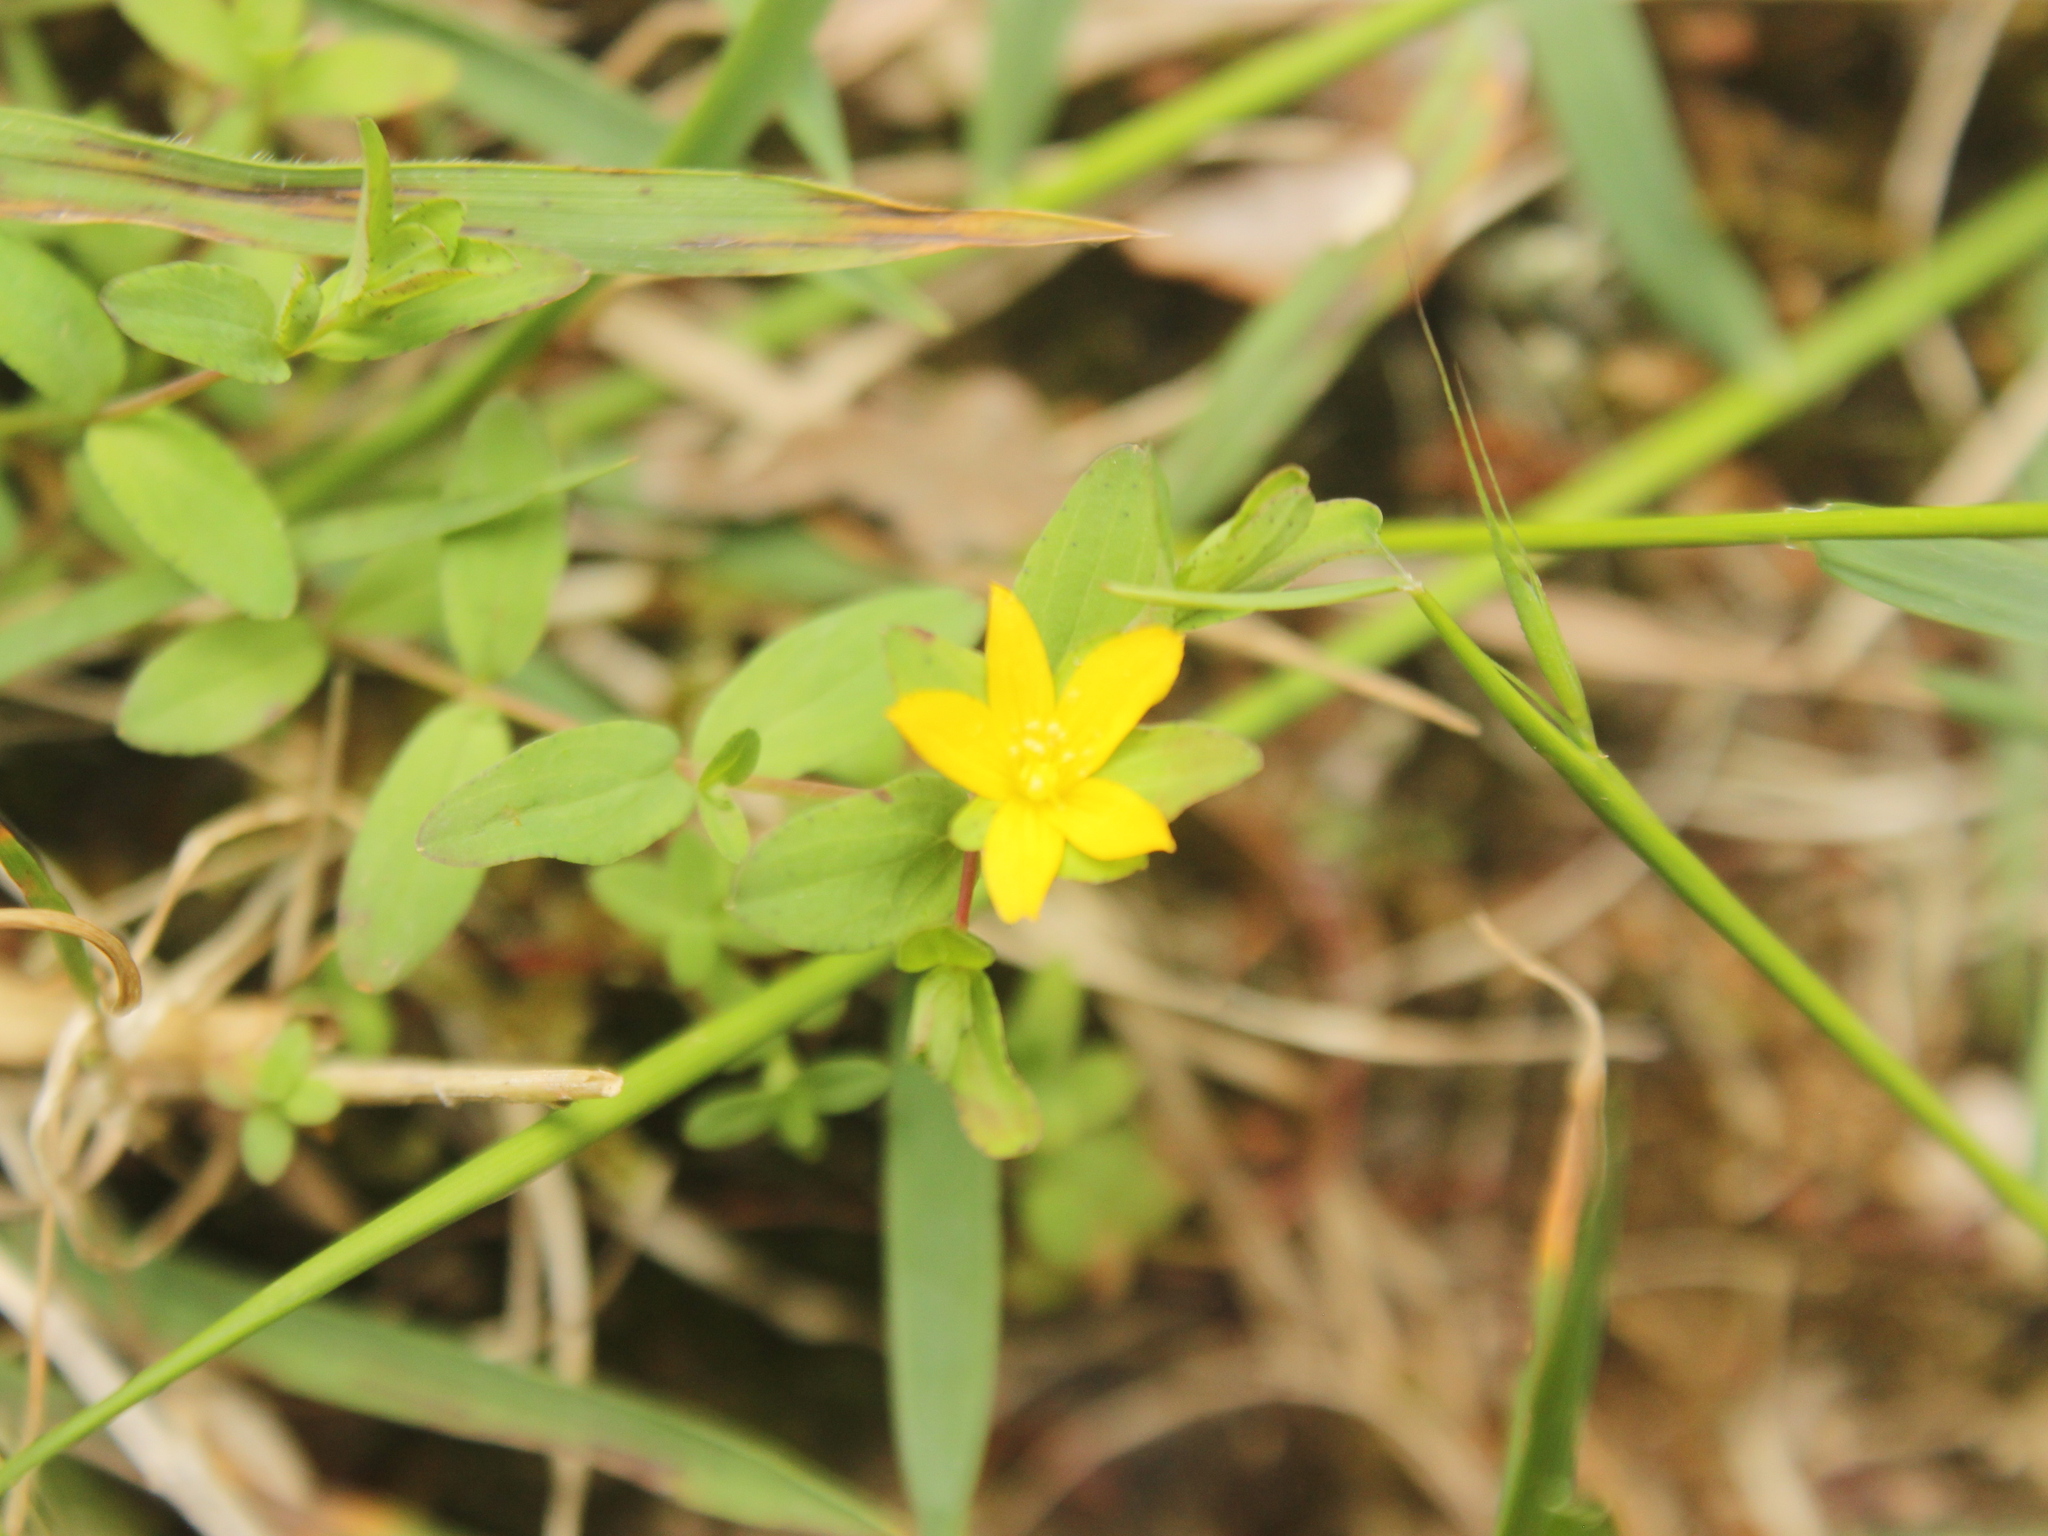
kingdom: Plantae
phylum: Tracheophyta
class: Magnoliopsida
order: Malpighiales
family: Hypericaceae
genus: Hypericum
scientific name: Hypericum humifusum
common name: Trailing st. john's-wort
